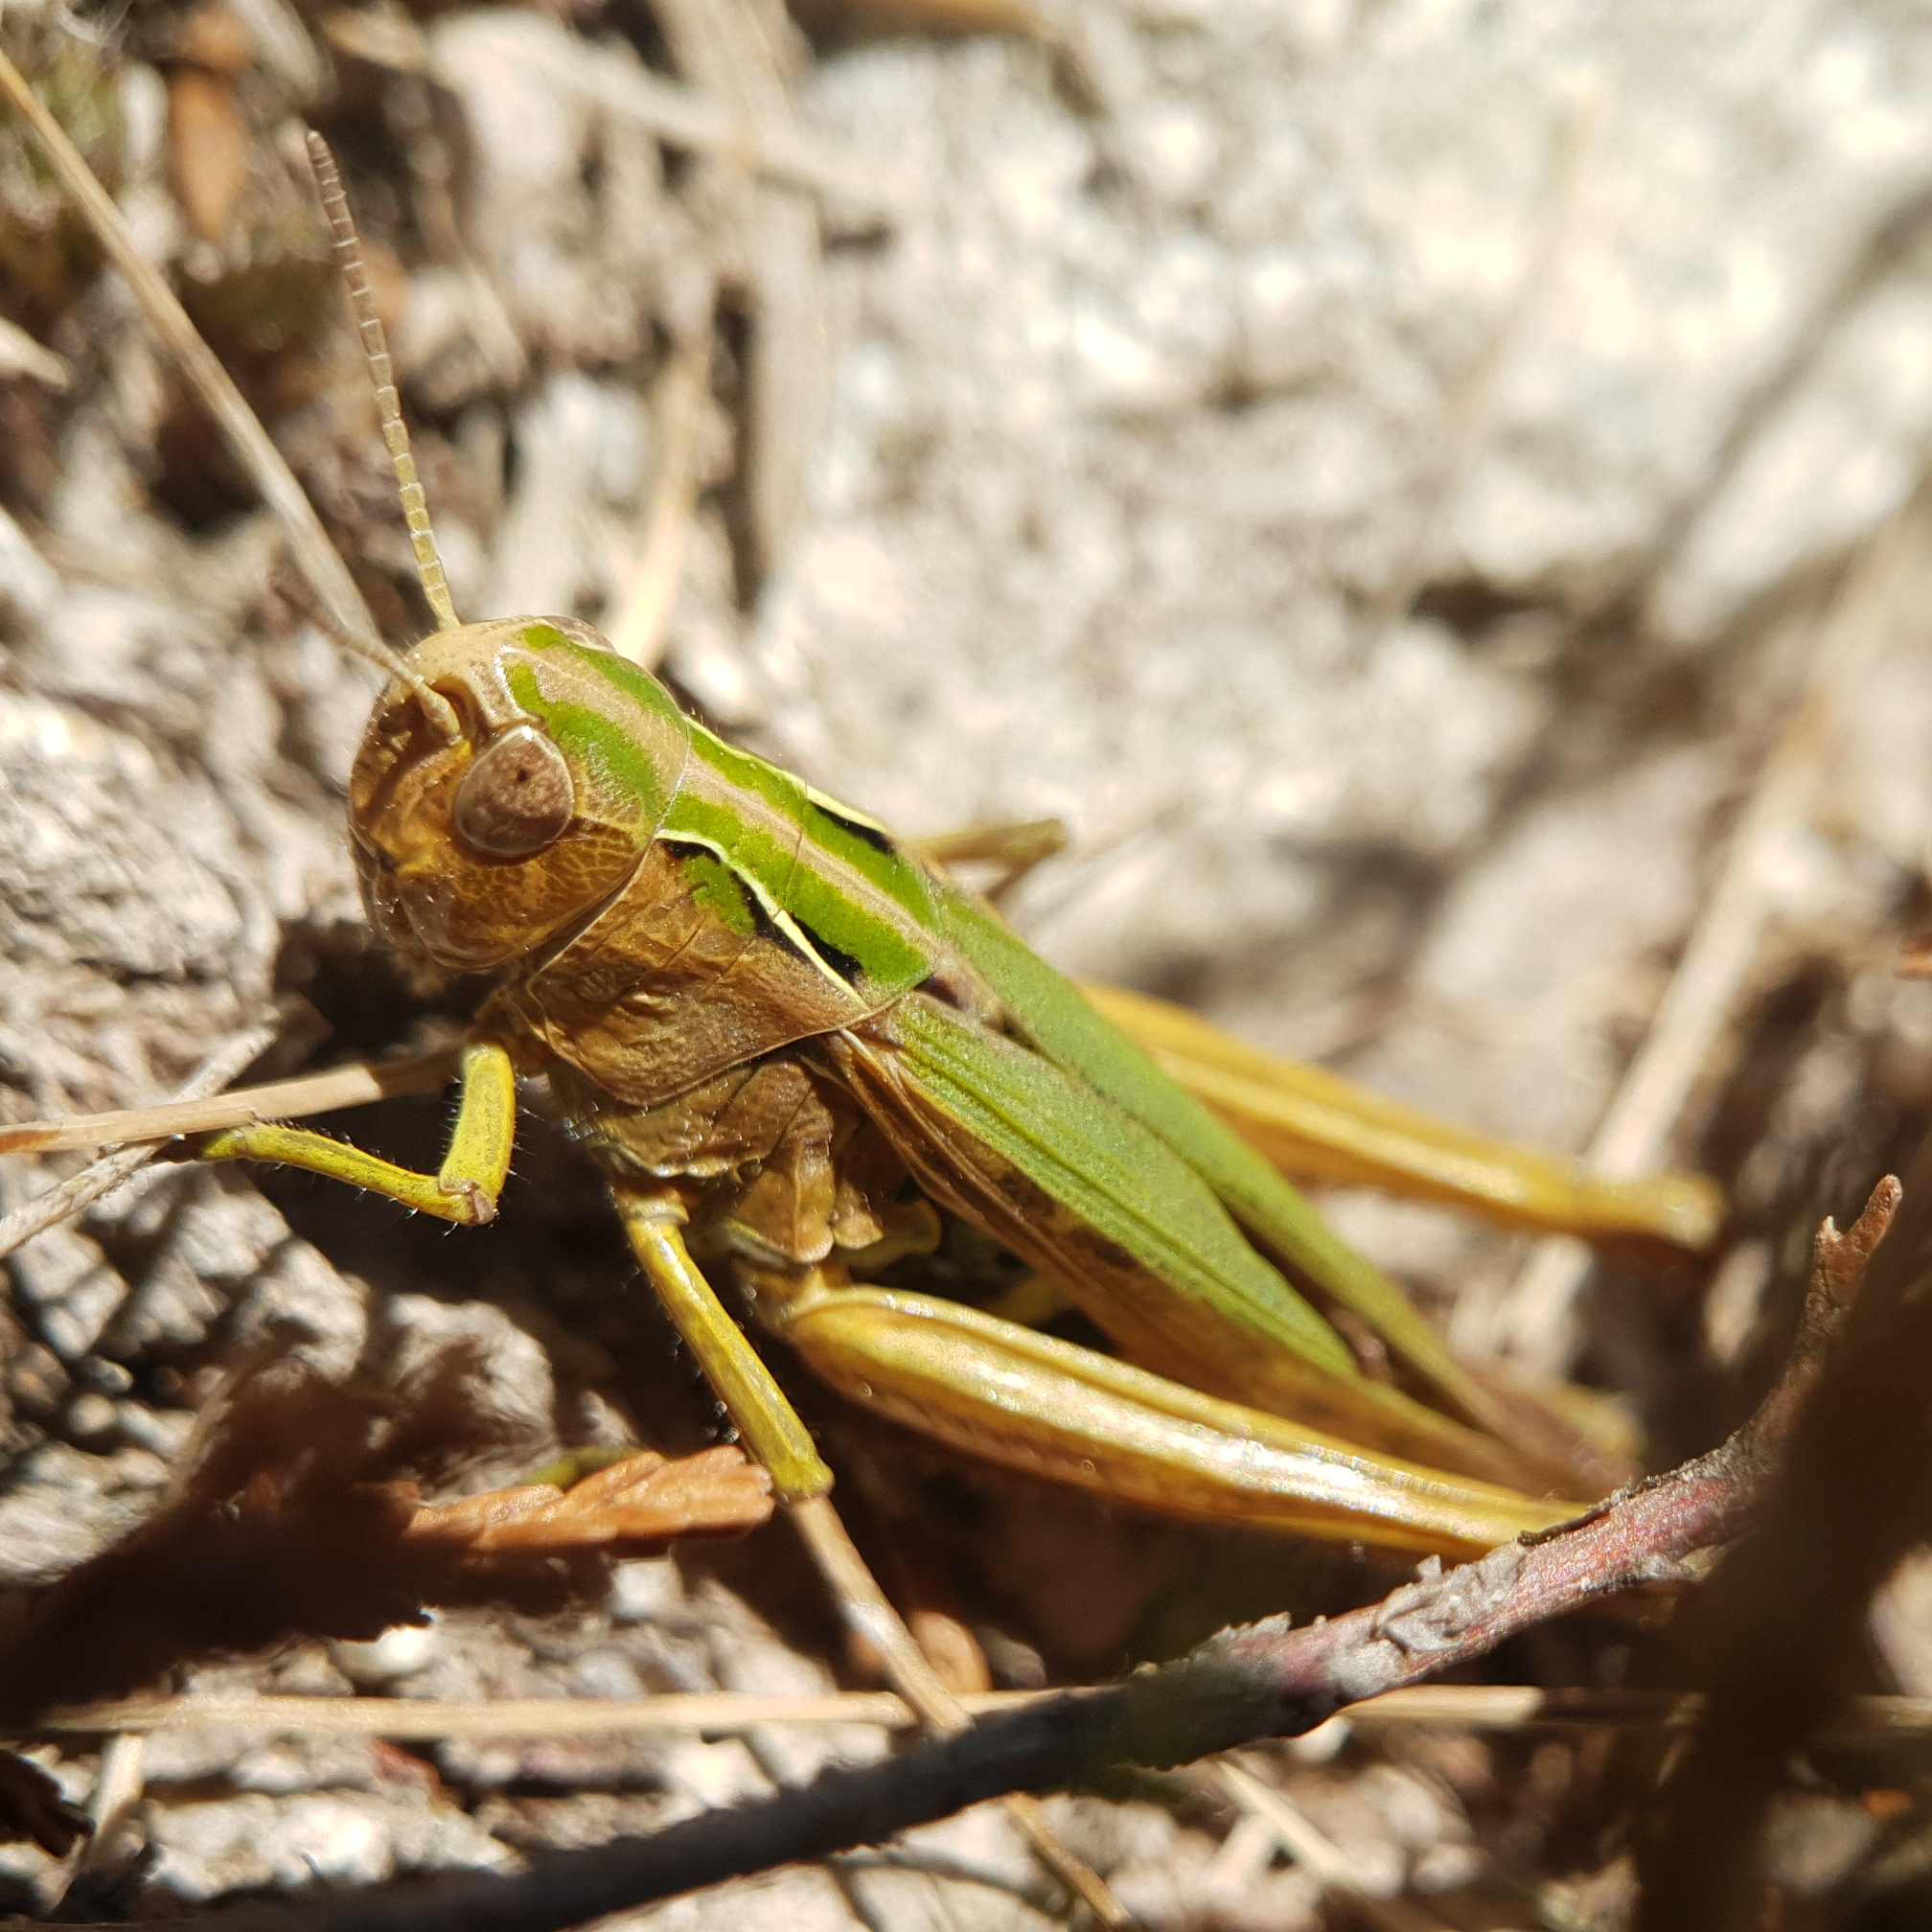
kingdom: Animalia
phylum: Arthropoda
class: Insecta
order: Orthoptera
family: Acrididae
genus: Omocestus
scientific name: Omocestus viridulus
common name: Common green grasshopper
